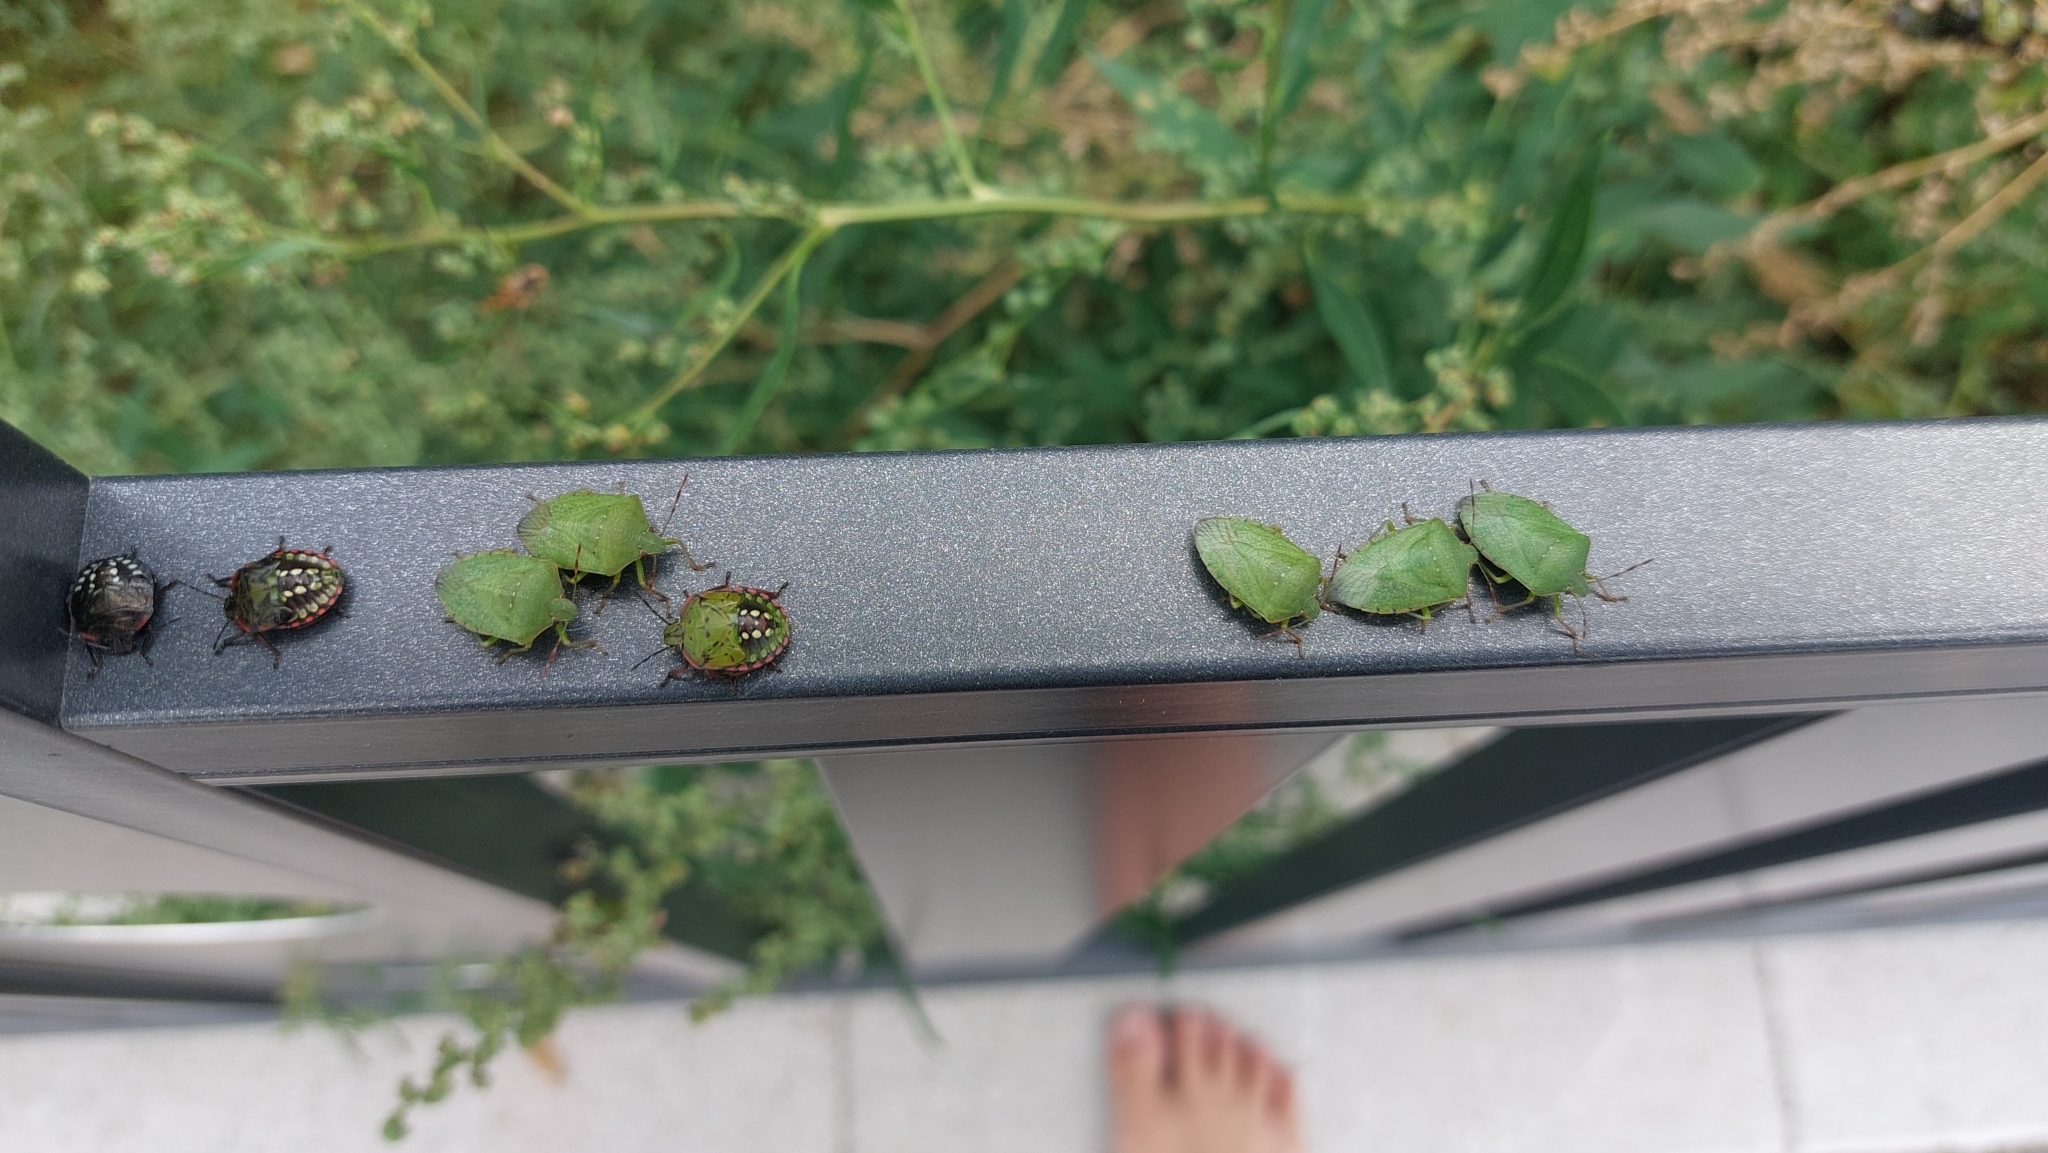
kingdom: Animalia
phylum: Arthropoda
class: Insecta
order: Hemiptera
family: Pentatomidae
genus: Nezara
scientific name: Nezara viridula
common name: Southern green stink bug
